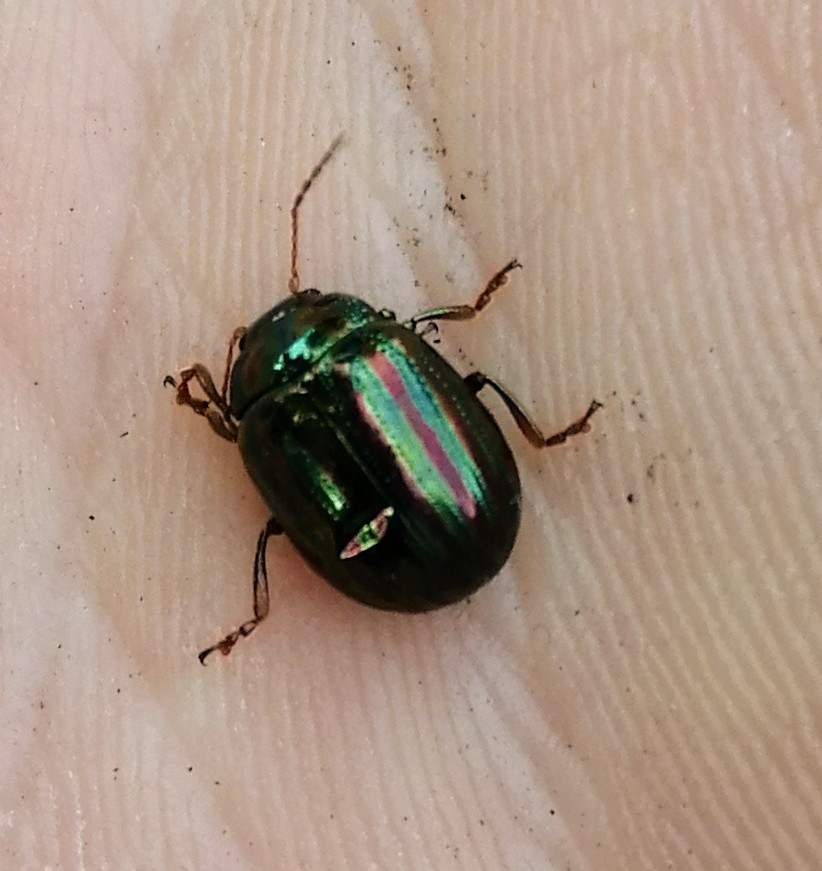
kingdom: Animalia
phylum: Arthropoda
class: Insecta
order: Coleoptera
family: Chrysomelidae
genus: Chrysolina
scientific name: Chrysolina americana
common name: Rosemary beetle
